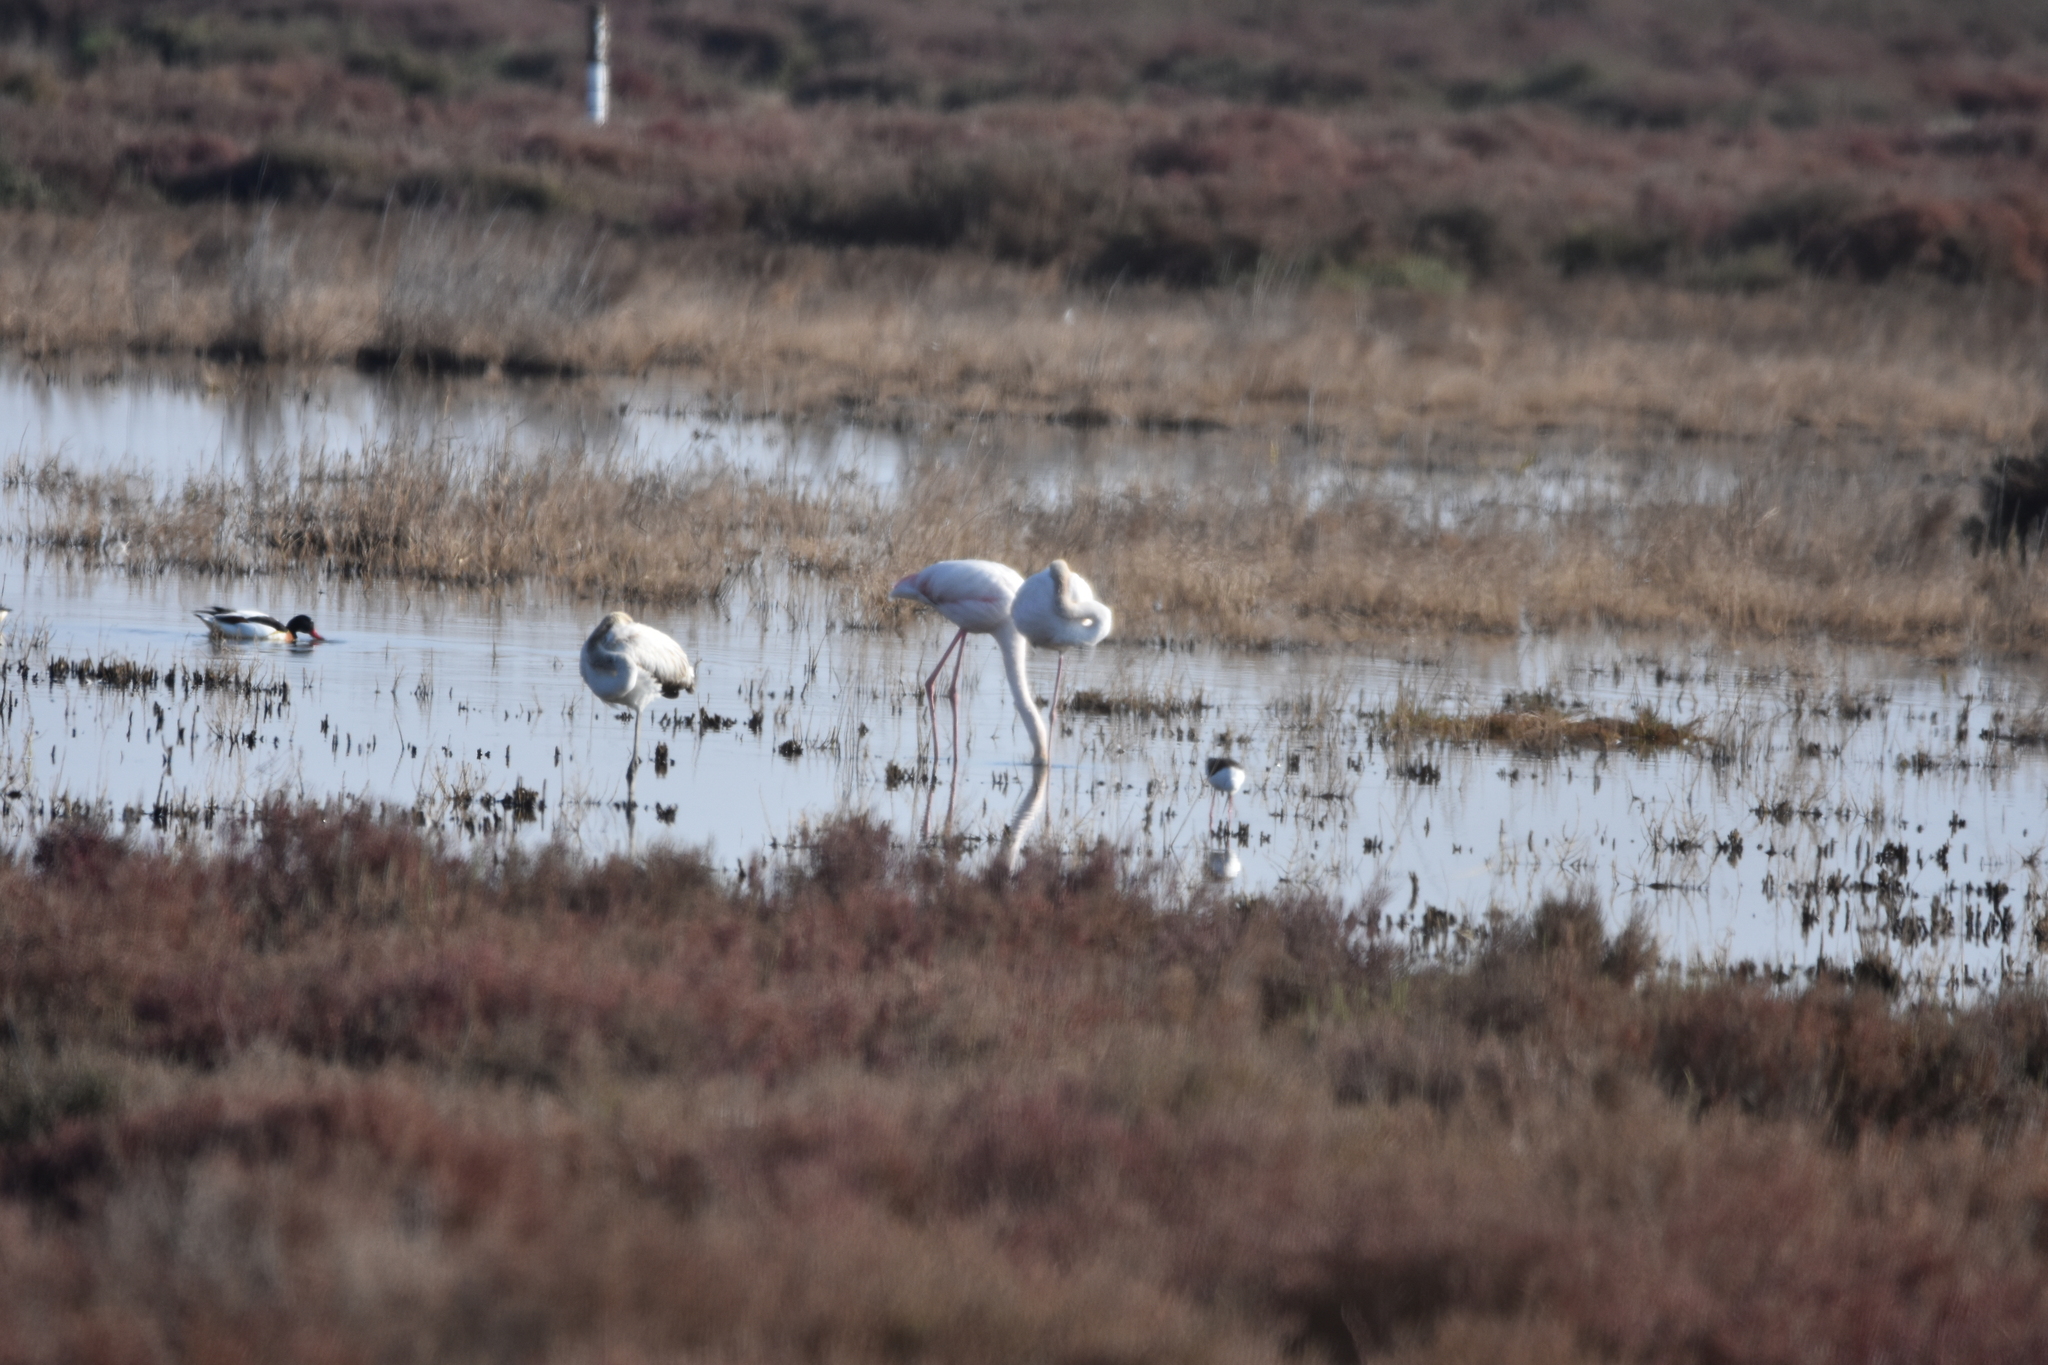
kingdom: Animalia
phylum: Chordata
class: Aves
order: Phoenicopteriformes
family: Phoenicopteridae
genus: Phoenicopterus
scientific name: Phoenicopterus roseus
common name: Greater flamingo
